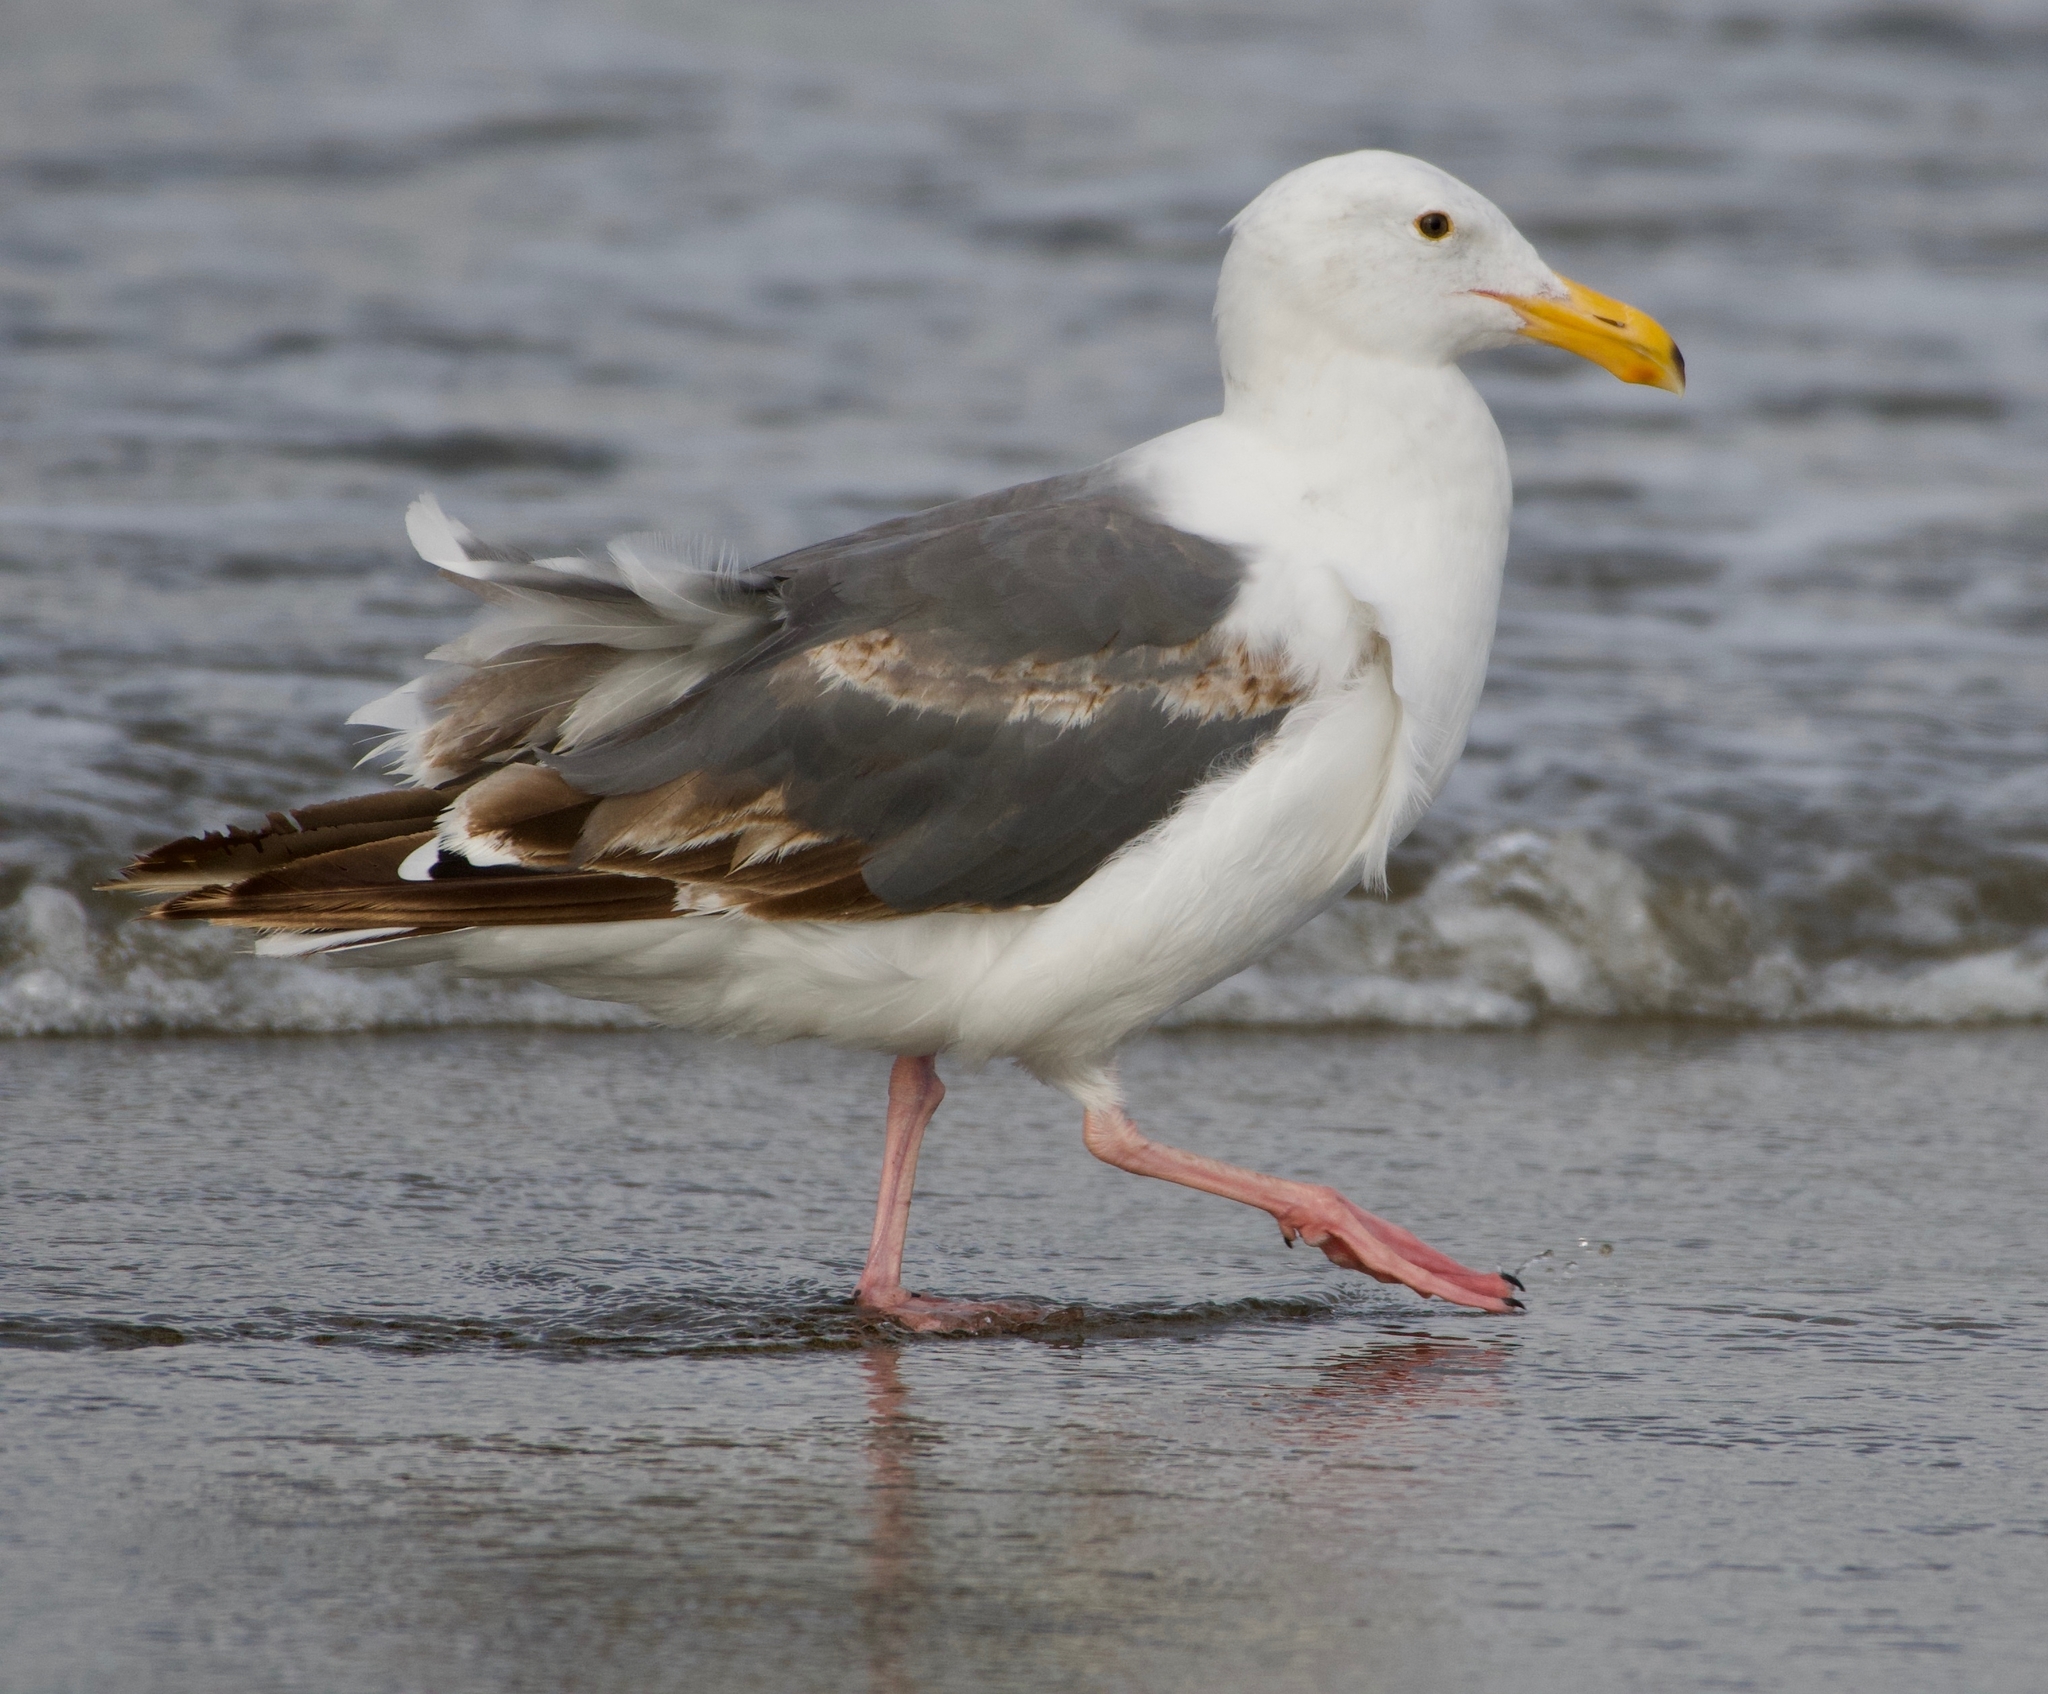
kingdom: Animalia
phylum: Chordata
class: Aves
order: Charadriiformes
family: Laridae
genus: Larus
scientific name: Larus occidentalis
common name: Western gull
